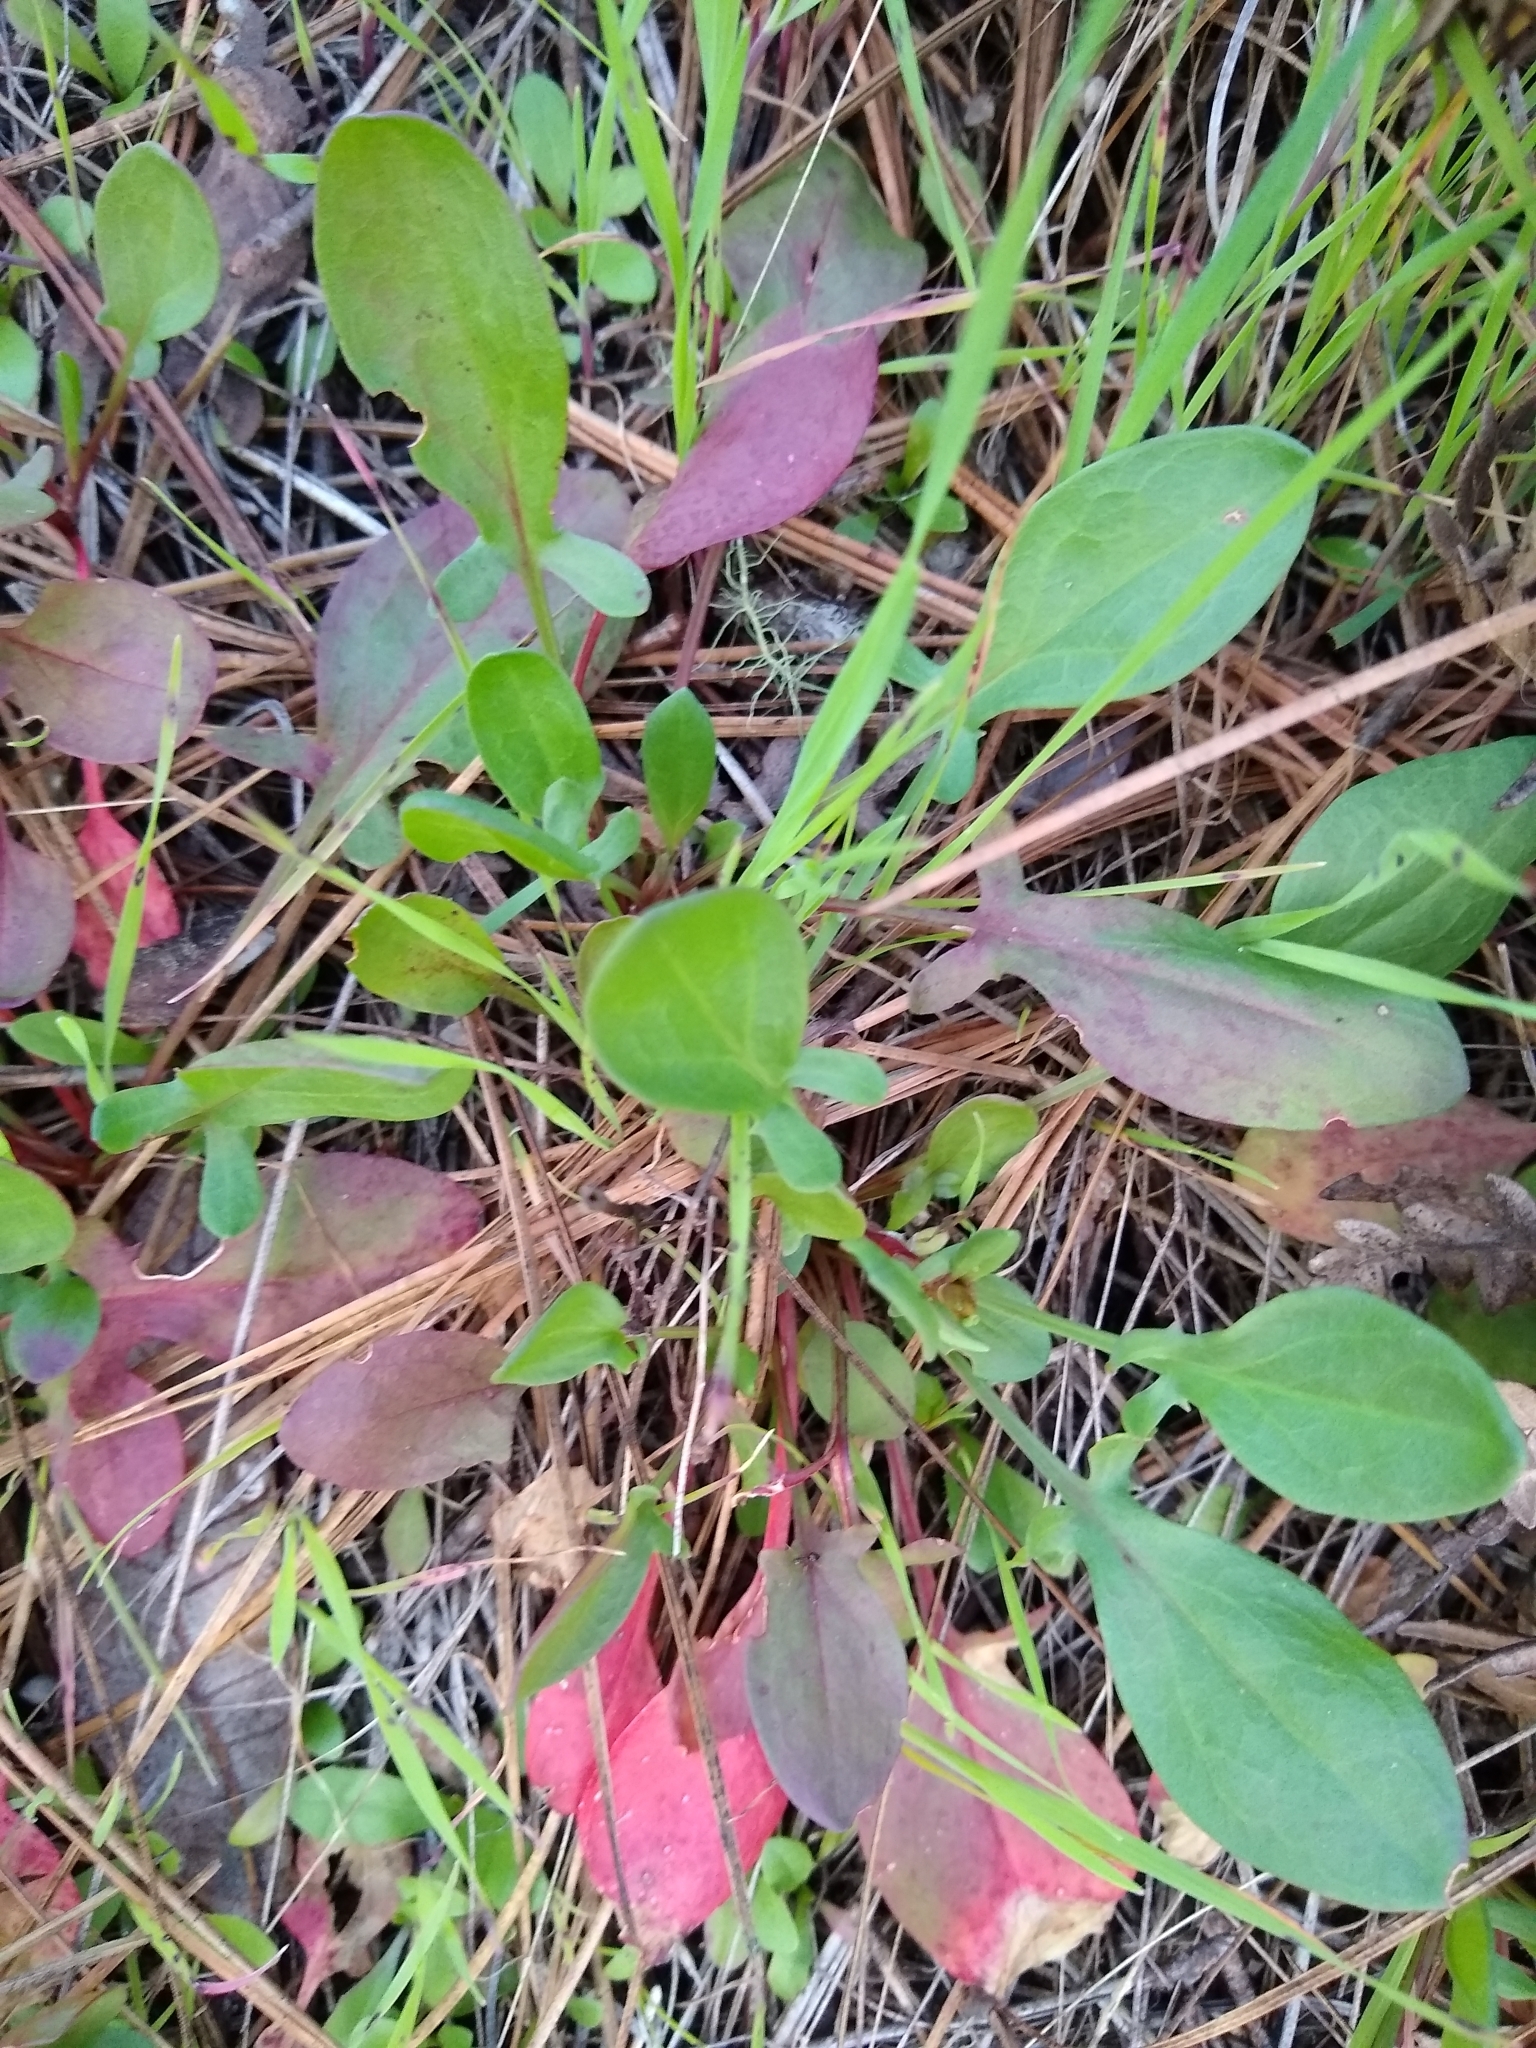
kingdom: Plantae
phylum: Tracheophyta
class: Magnoliopsida
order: Caryophyllales
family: Polygonaceae
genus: Rumex
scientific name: Rumex acetosella
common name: Common sheep sorrel
